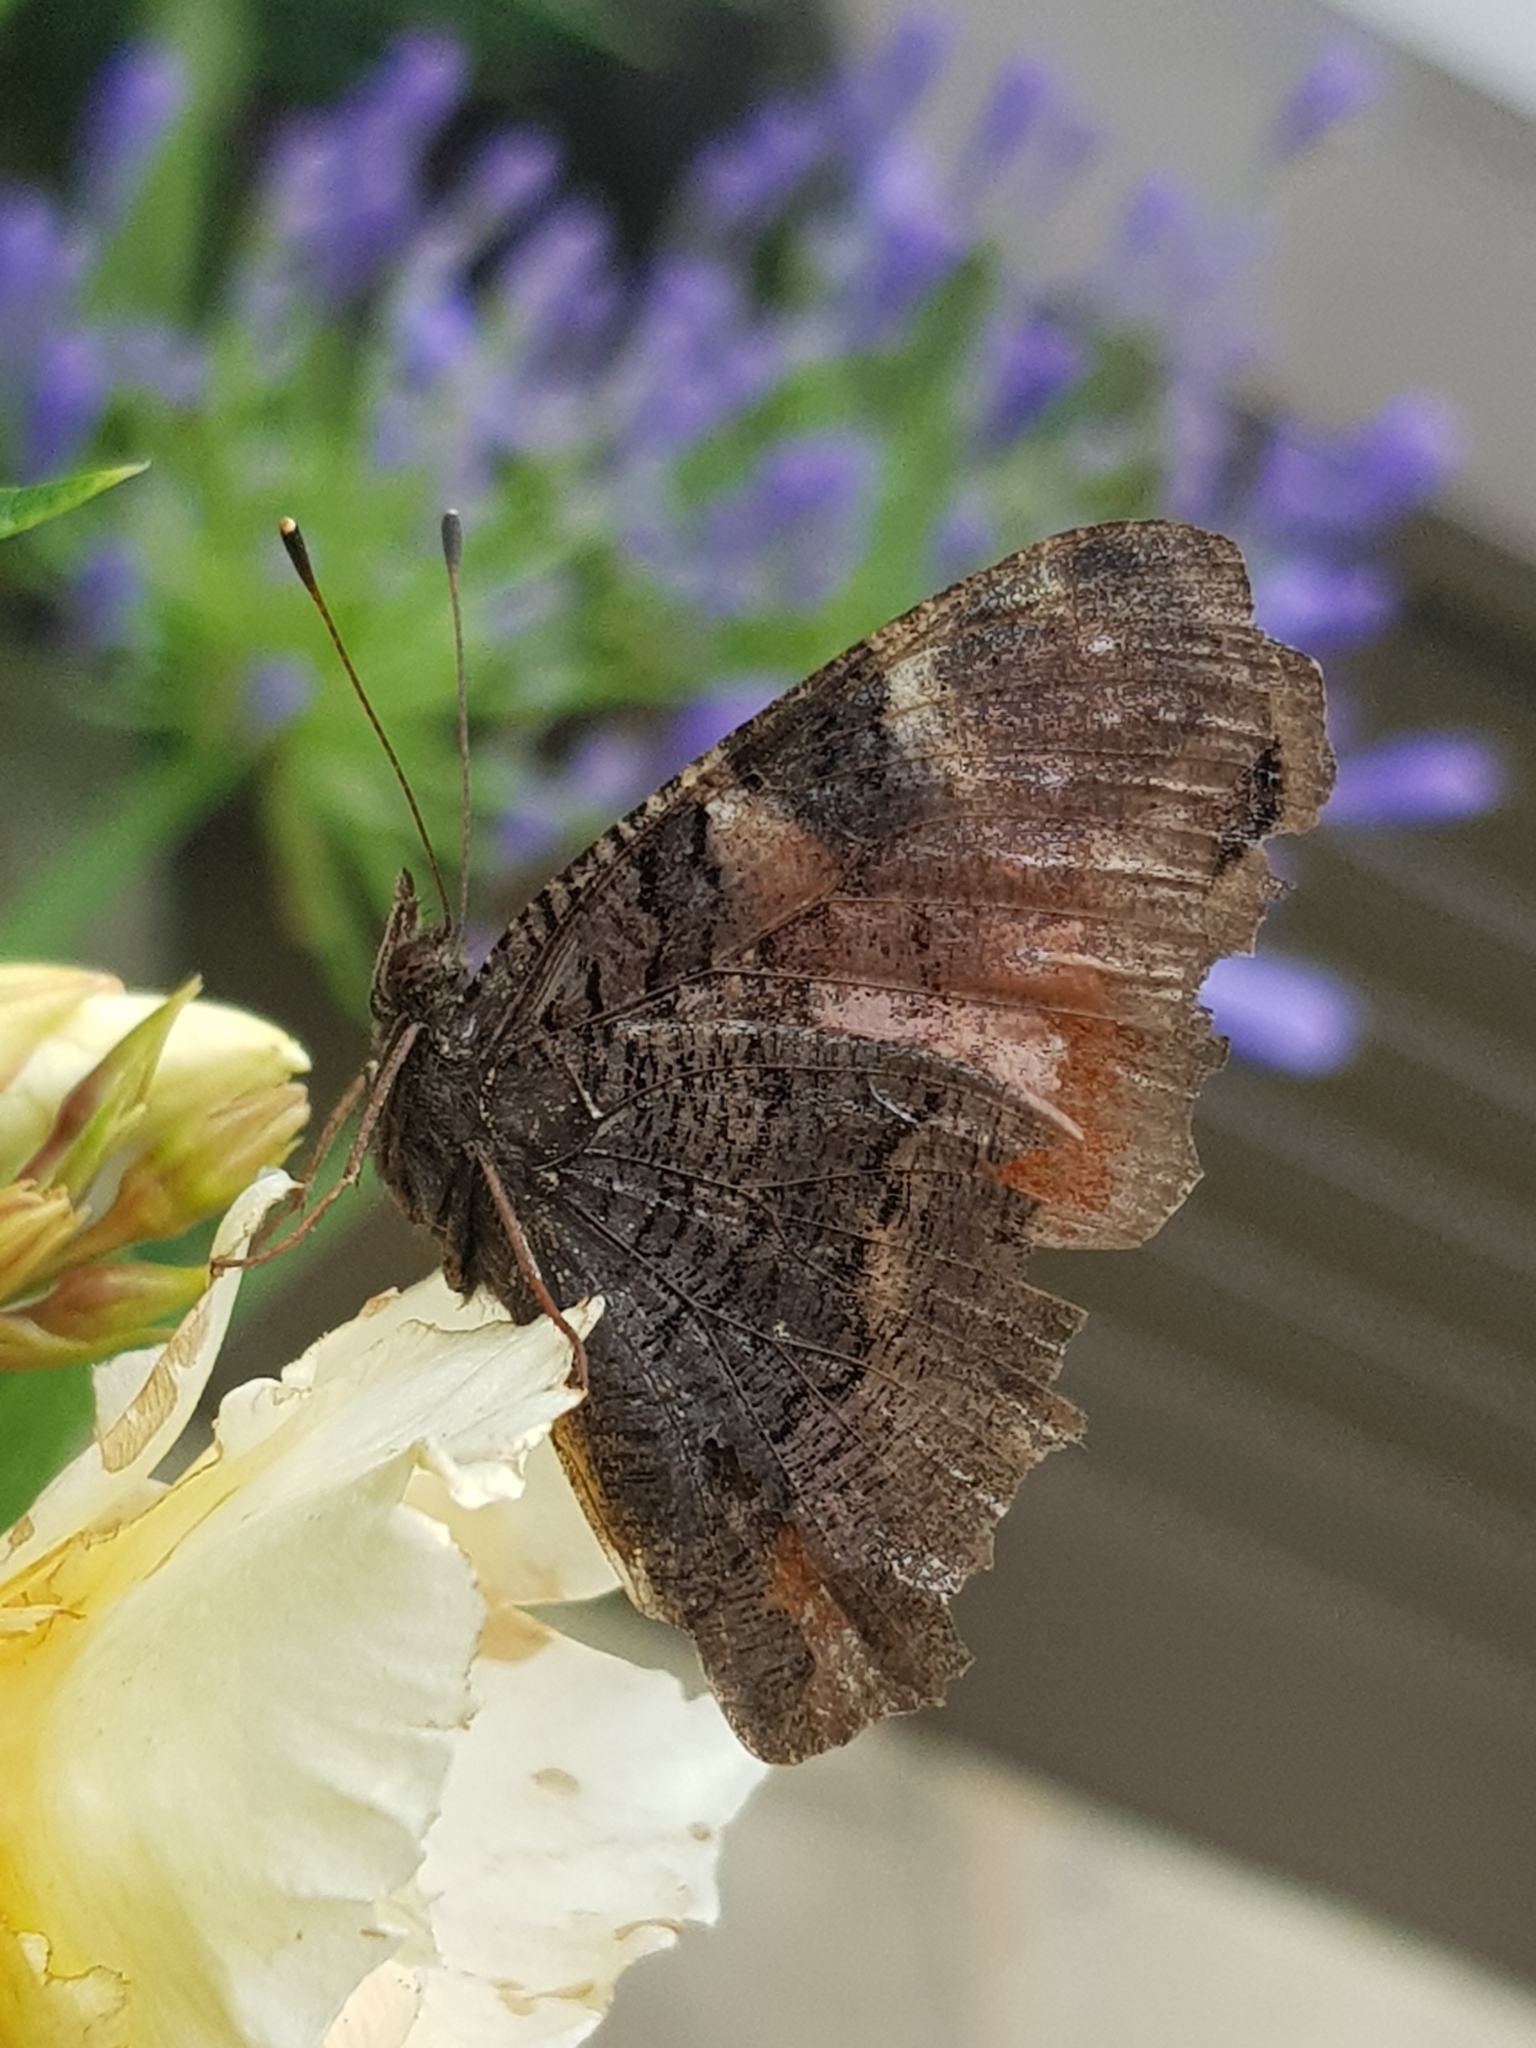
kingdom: Animalia
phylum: Arthropoda
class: Insecta
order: Lepidoptera
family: Nymphalidae
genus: Aglais
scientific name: Aglais io
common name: Peacock
